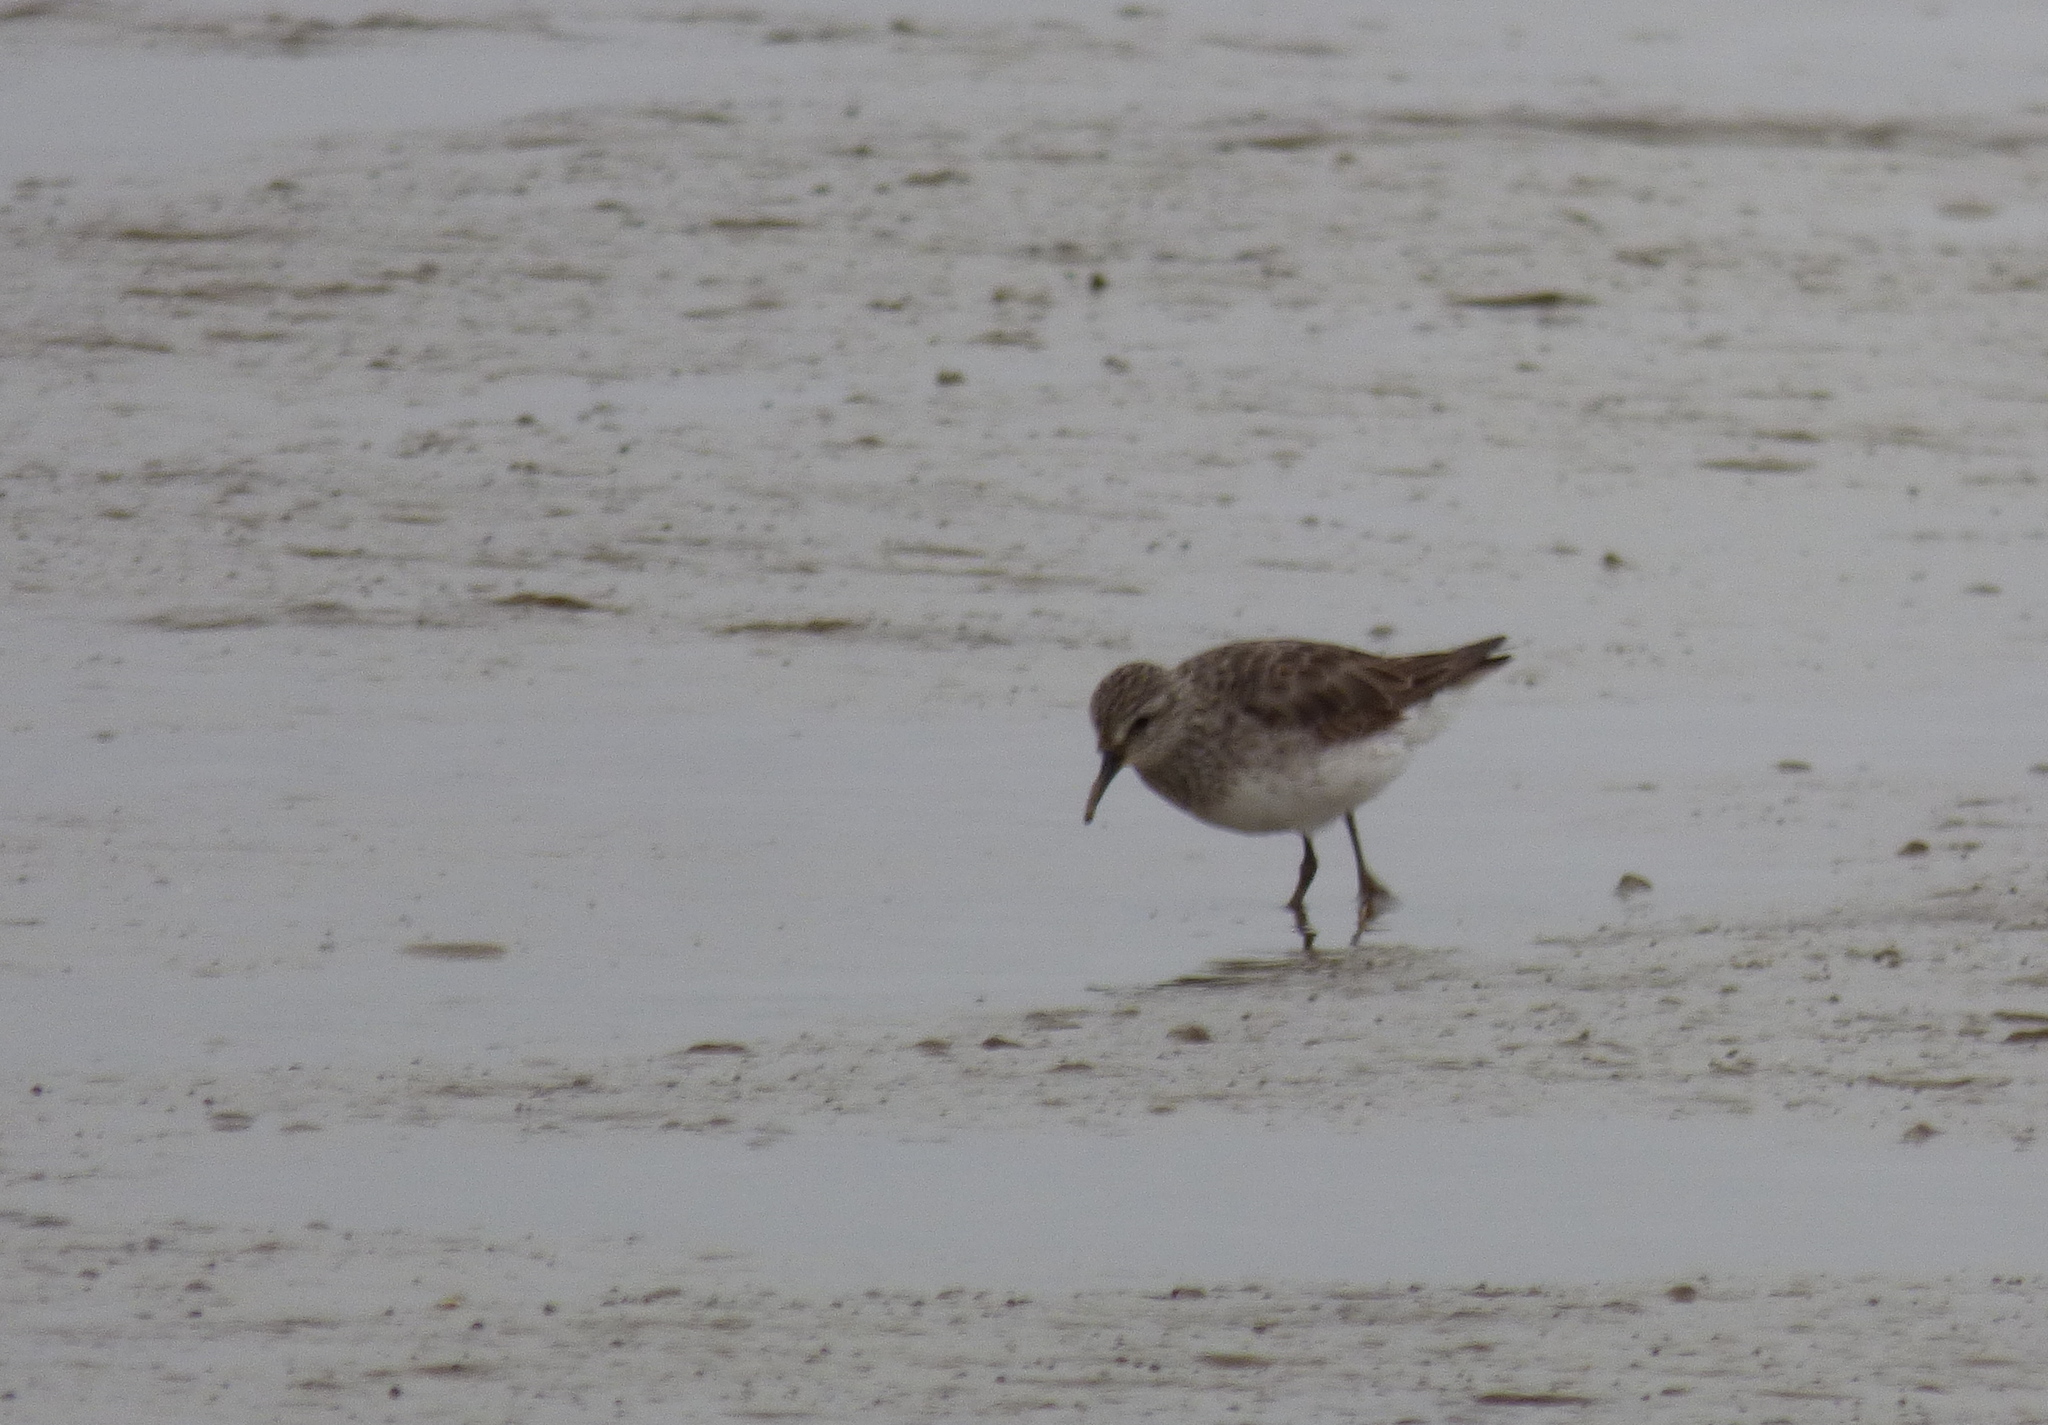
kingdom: Animalia
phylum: Chordata
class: Aves
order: Charadriiformes
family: Scolopacidae
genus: Calidris
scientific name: Calidris fuscicollis
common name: White-rumped sandpiper
